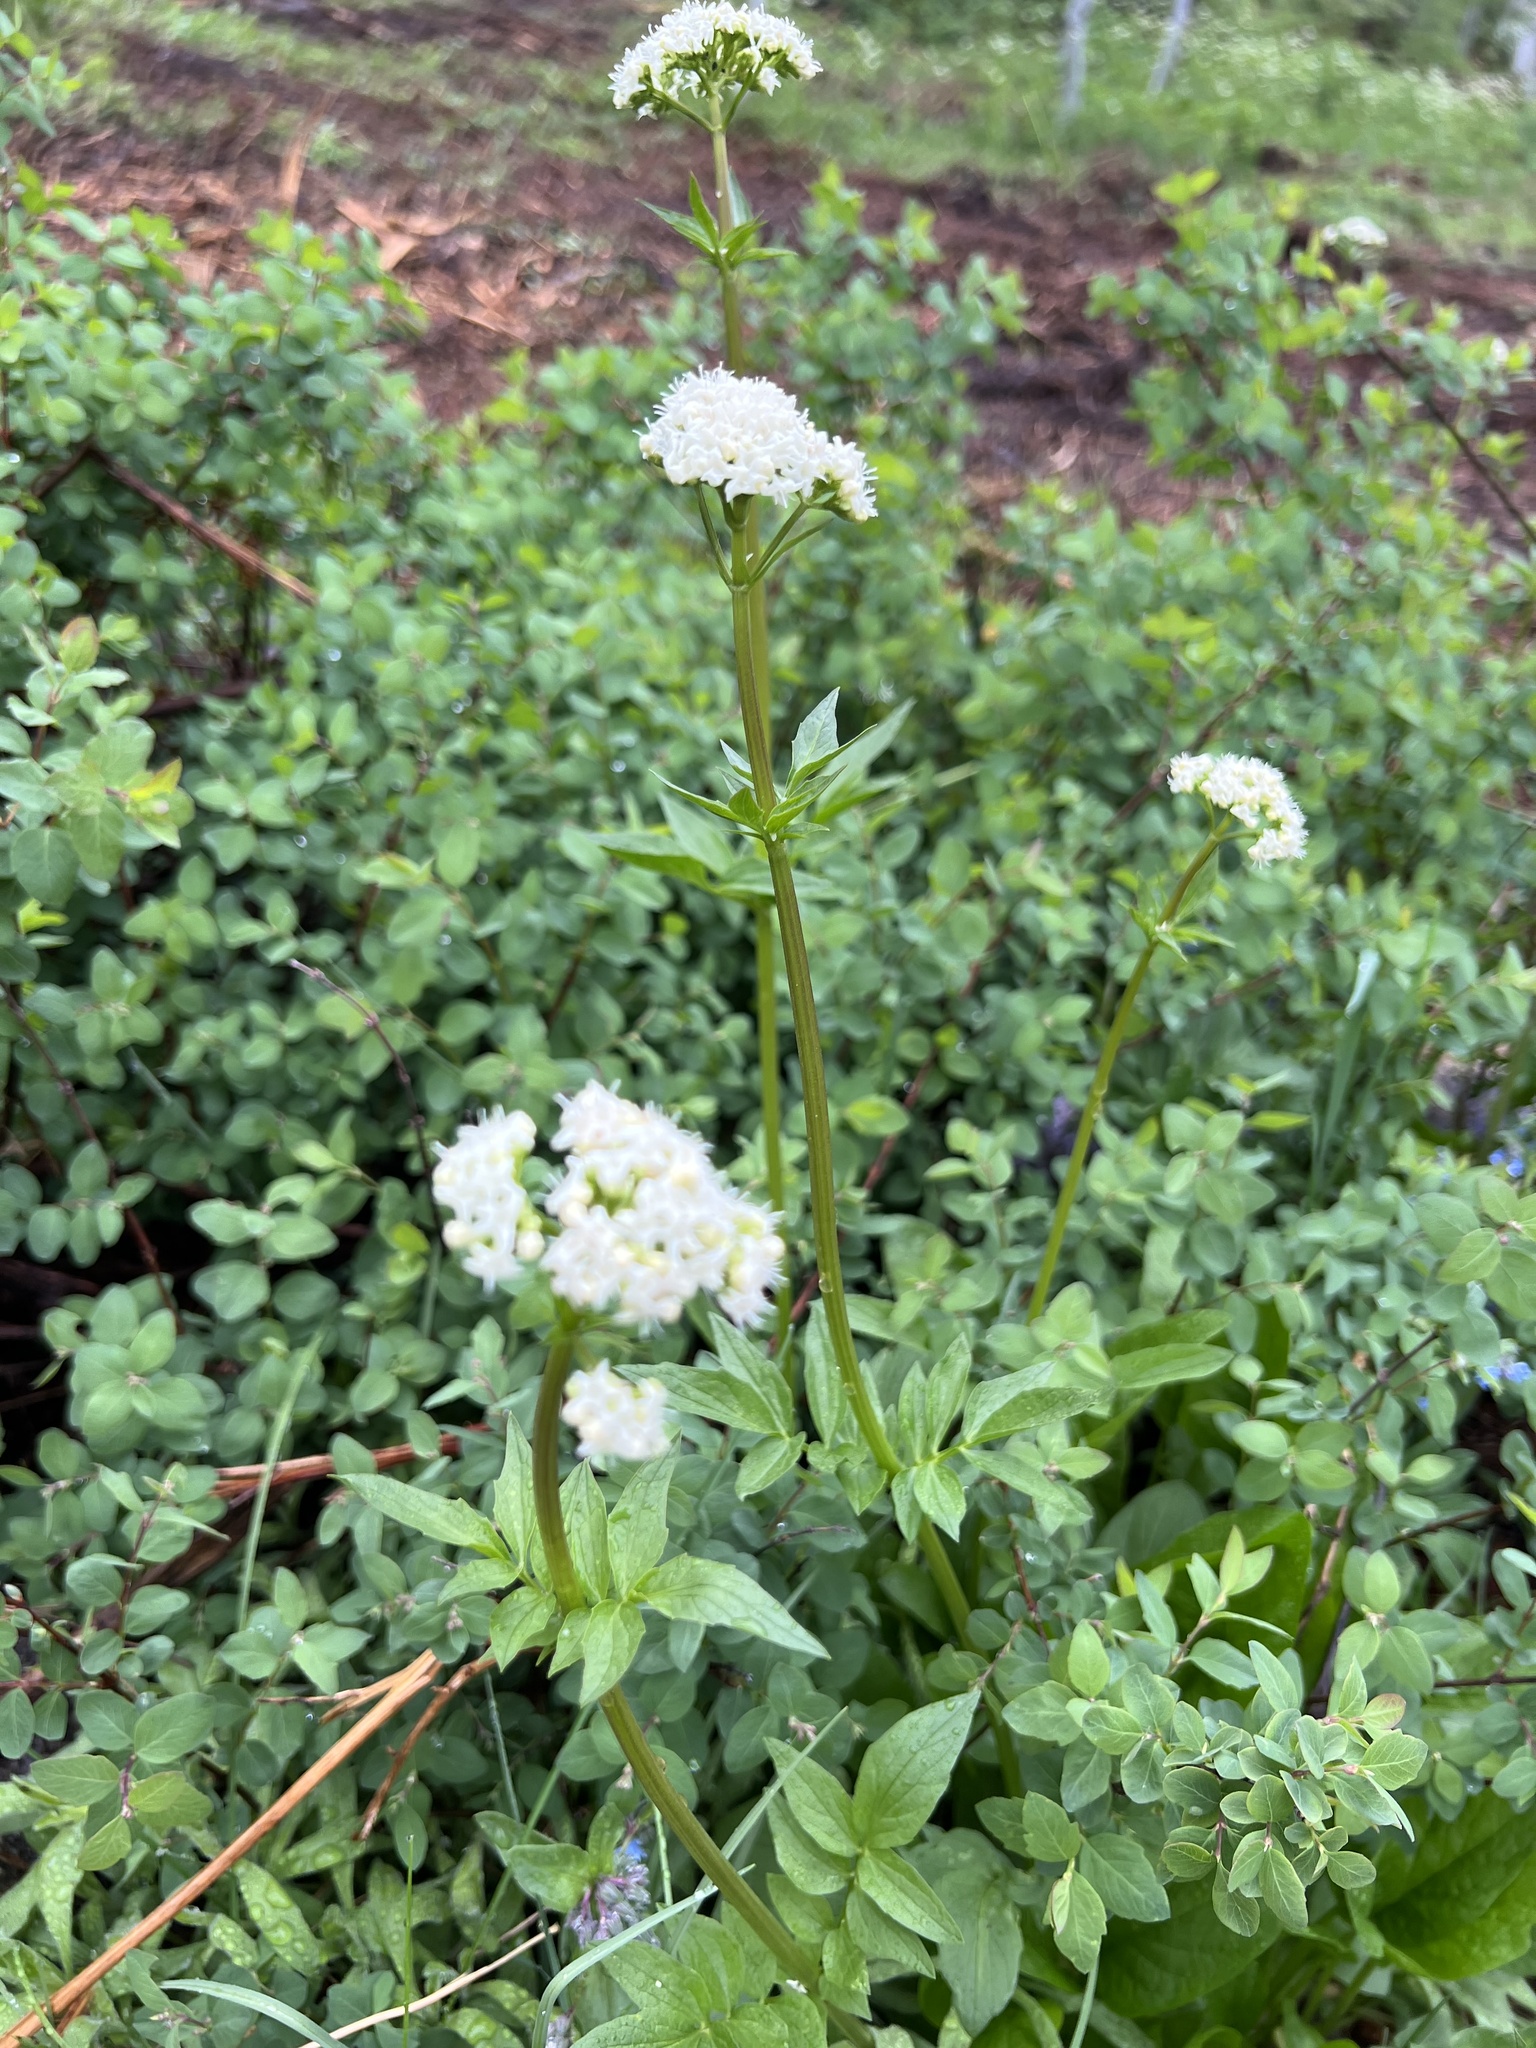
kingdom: Plantae
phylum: Tracheophyta
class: Magnoliopsida
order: Dipsacales
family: Caprifoliaceae
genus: Valeriana
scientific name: Valeriana occidentalis
